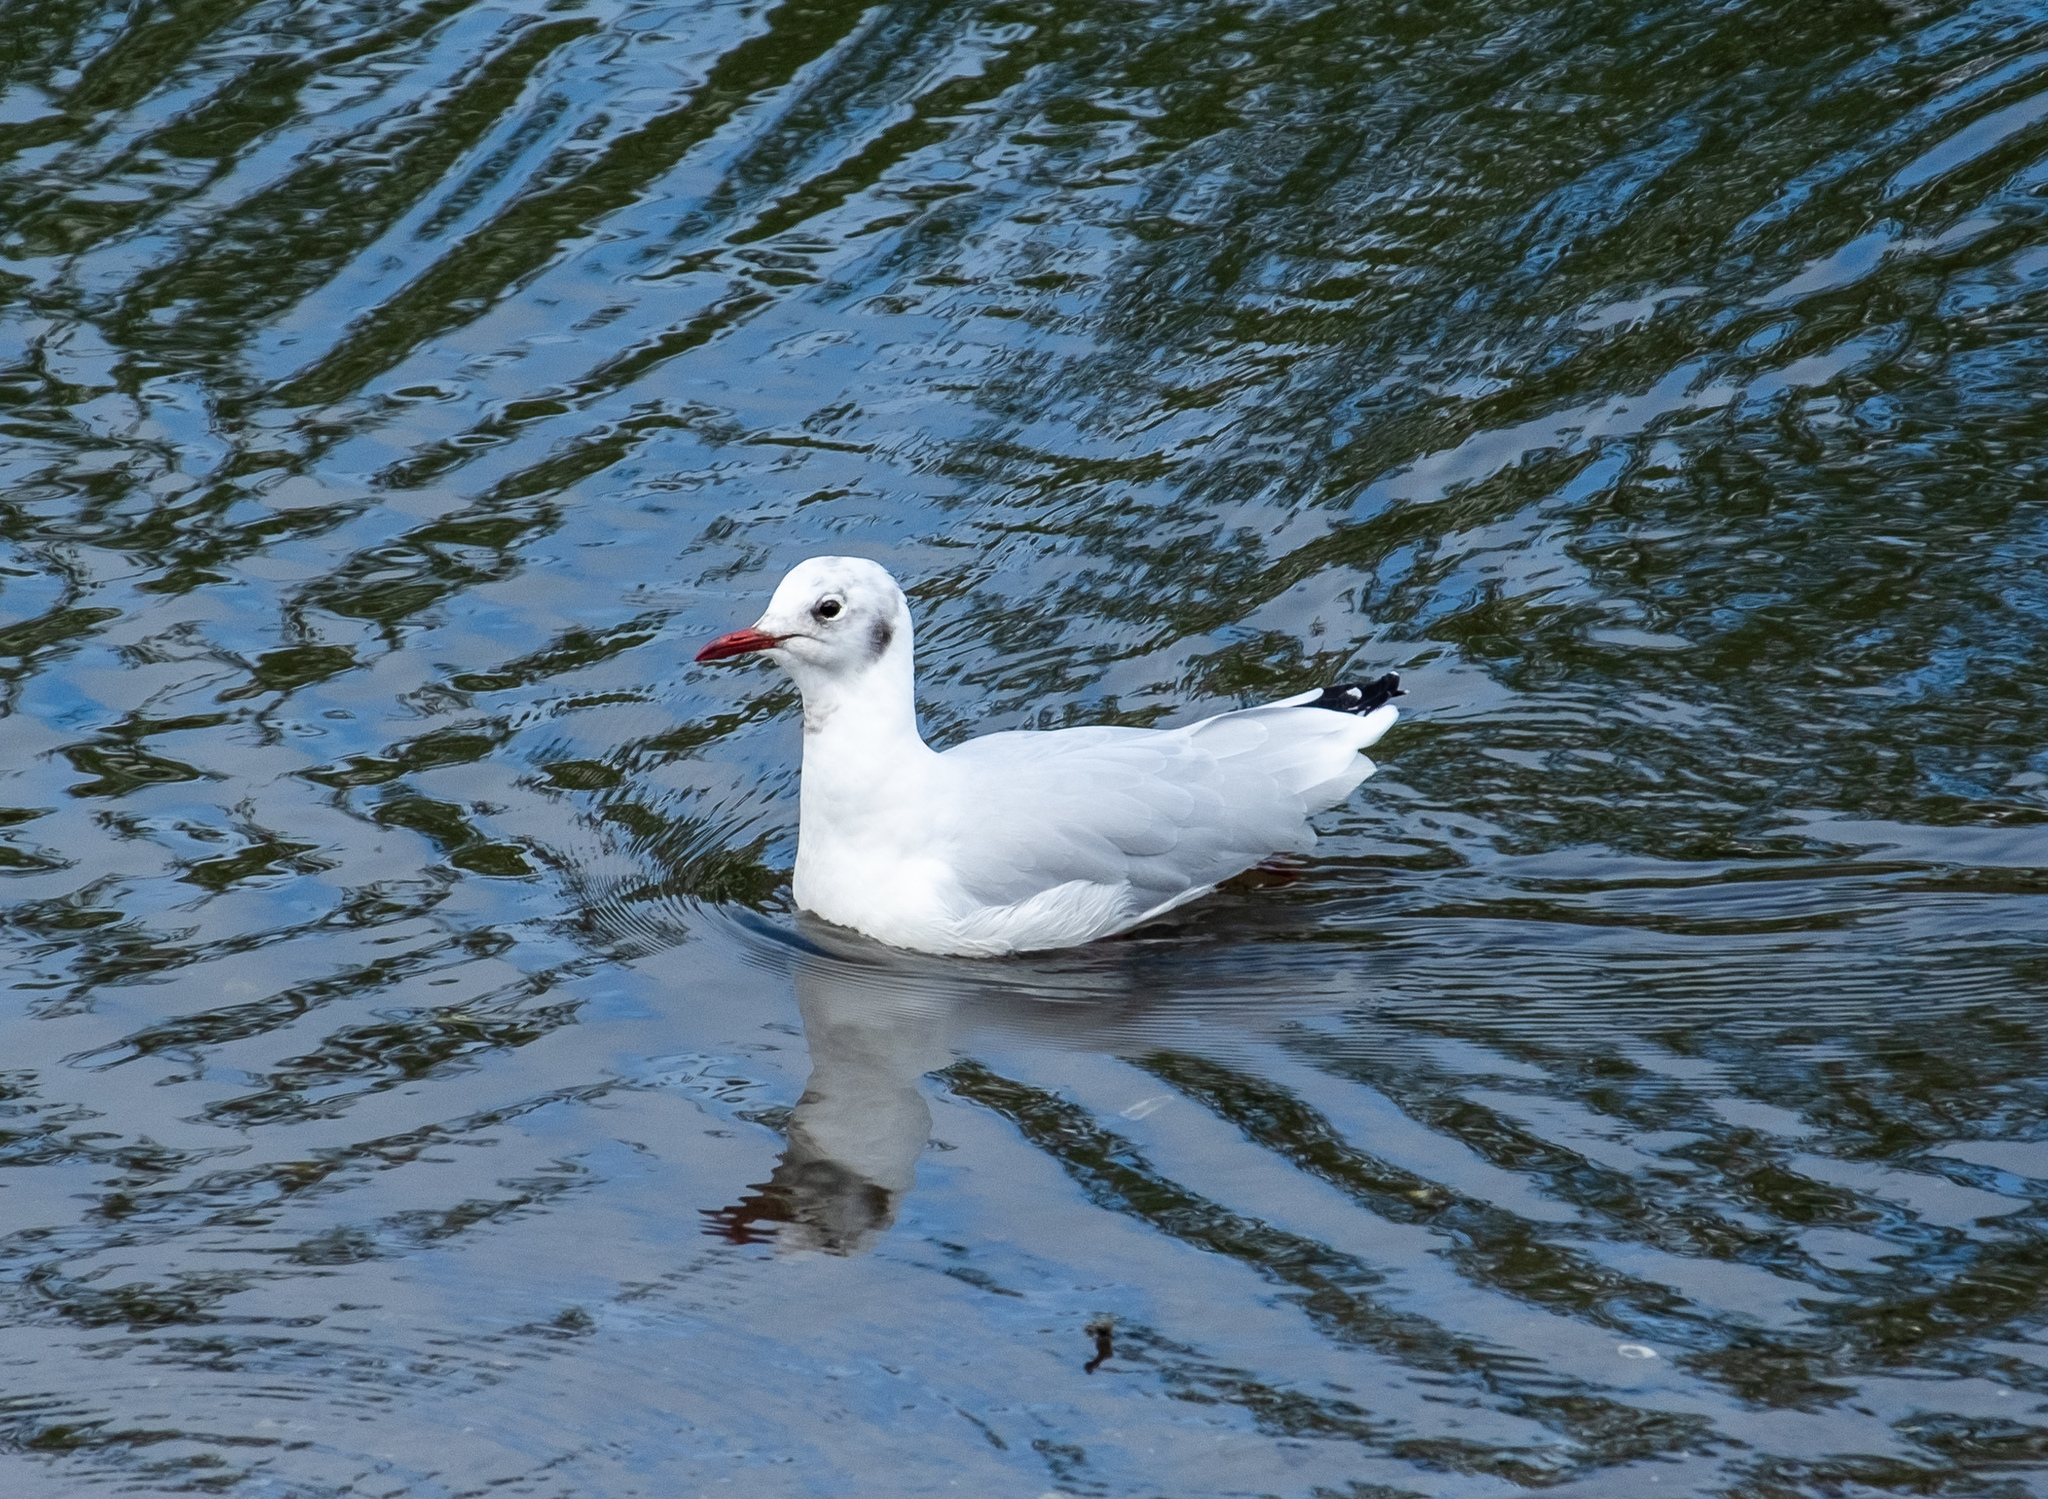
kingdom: Animalia
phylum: Chordata
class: Aves
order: Charadriiformes
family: Laridae
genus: Chroicocephalus
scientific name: Chroicocephalus ridibundus
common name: Black-headed gull
